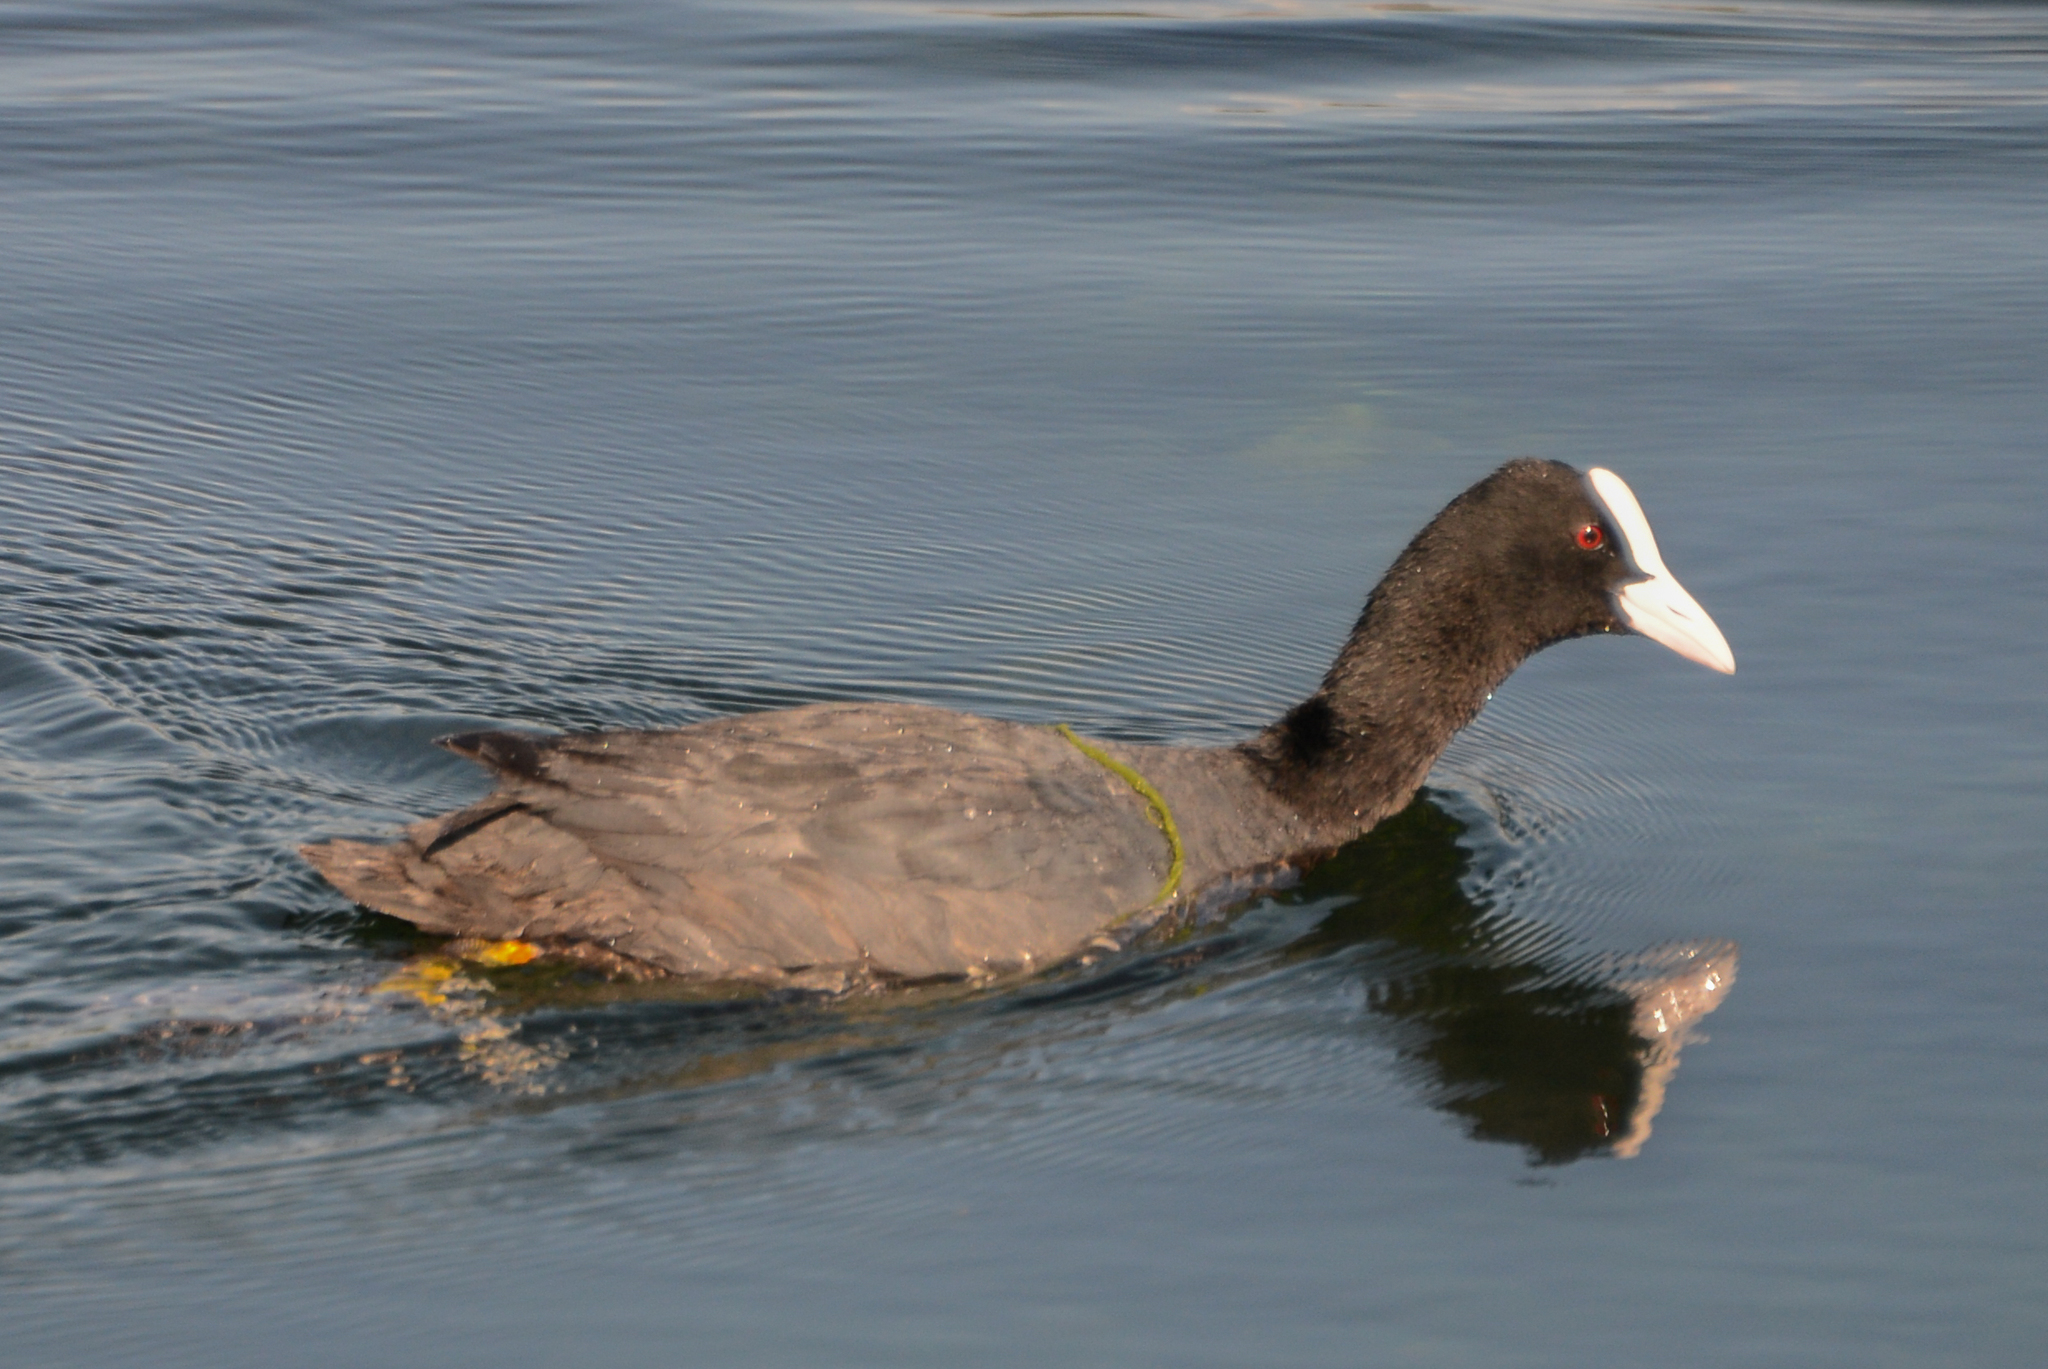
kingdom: Animalia
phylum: Chordata
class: Aves
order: Gruiformes
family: Rallidae
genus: Fulica
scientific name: Fulica atra
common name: Eurasian coot
